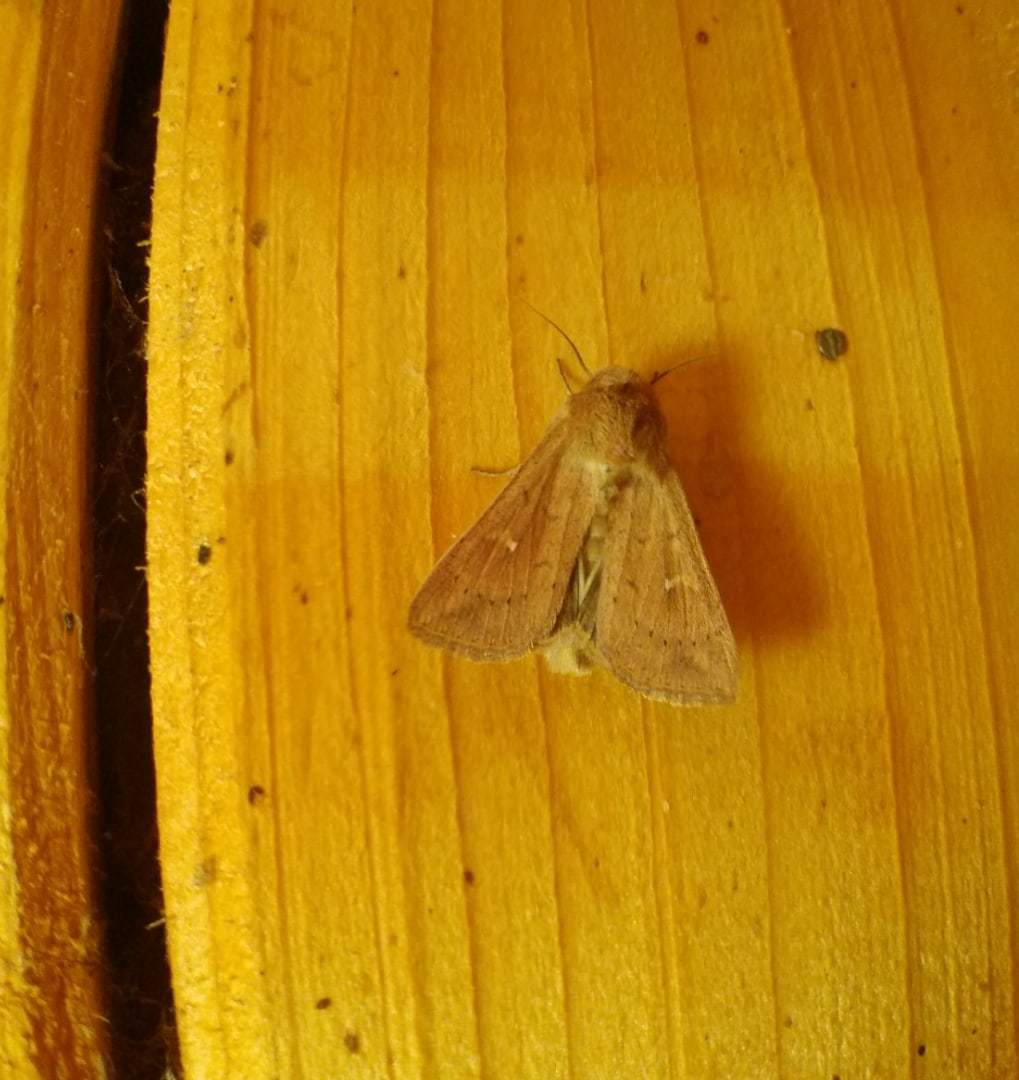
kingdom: Animalia
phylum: Arthropoda
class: Insecta
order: Lepidoptera
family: Noctuidae
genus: Mythimna
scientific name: Mythimna ferrago
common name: Clay
